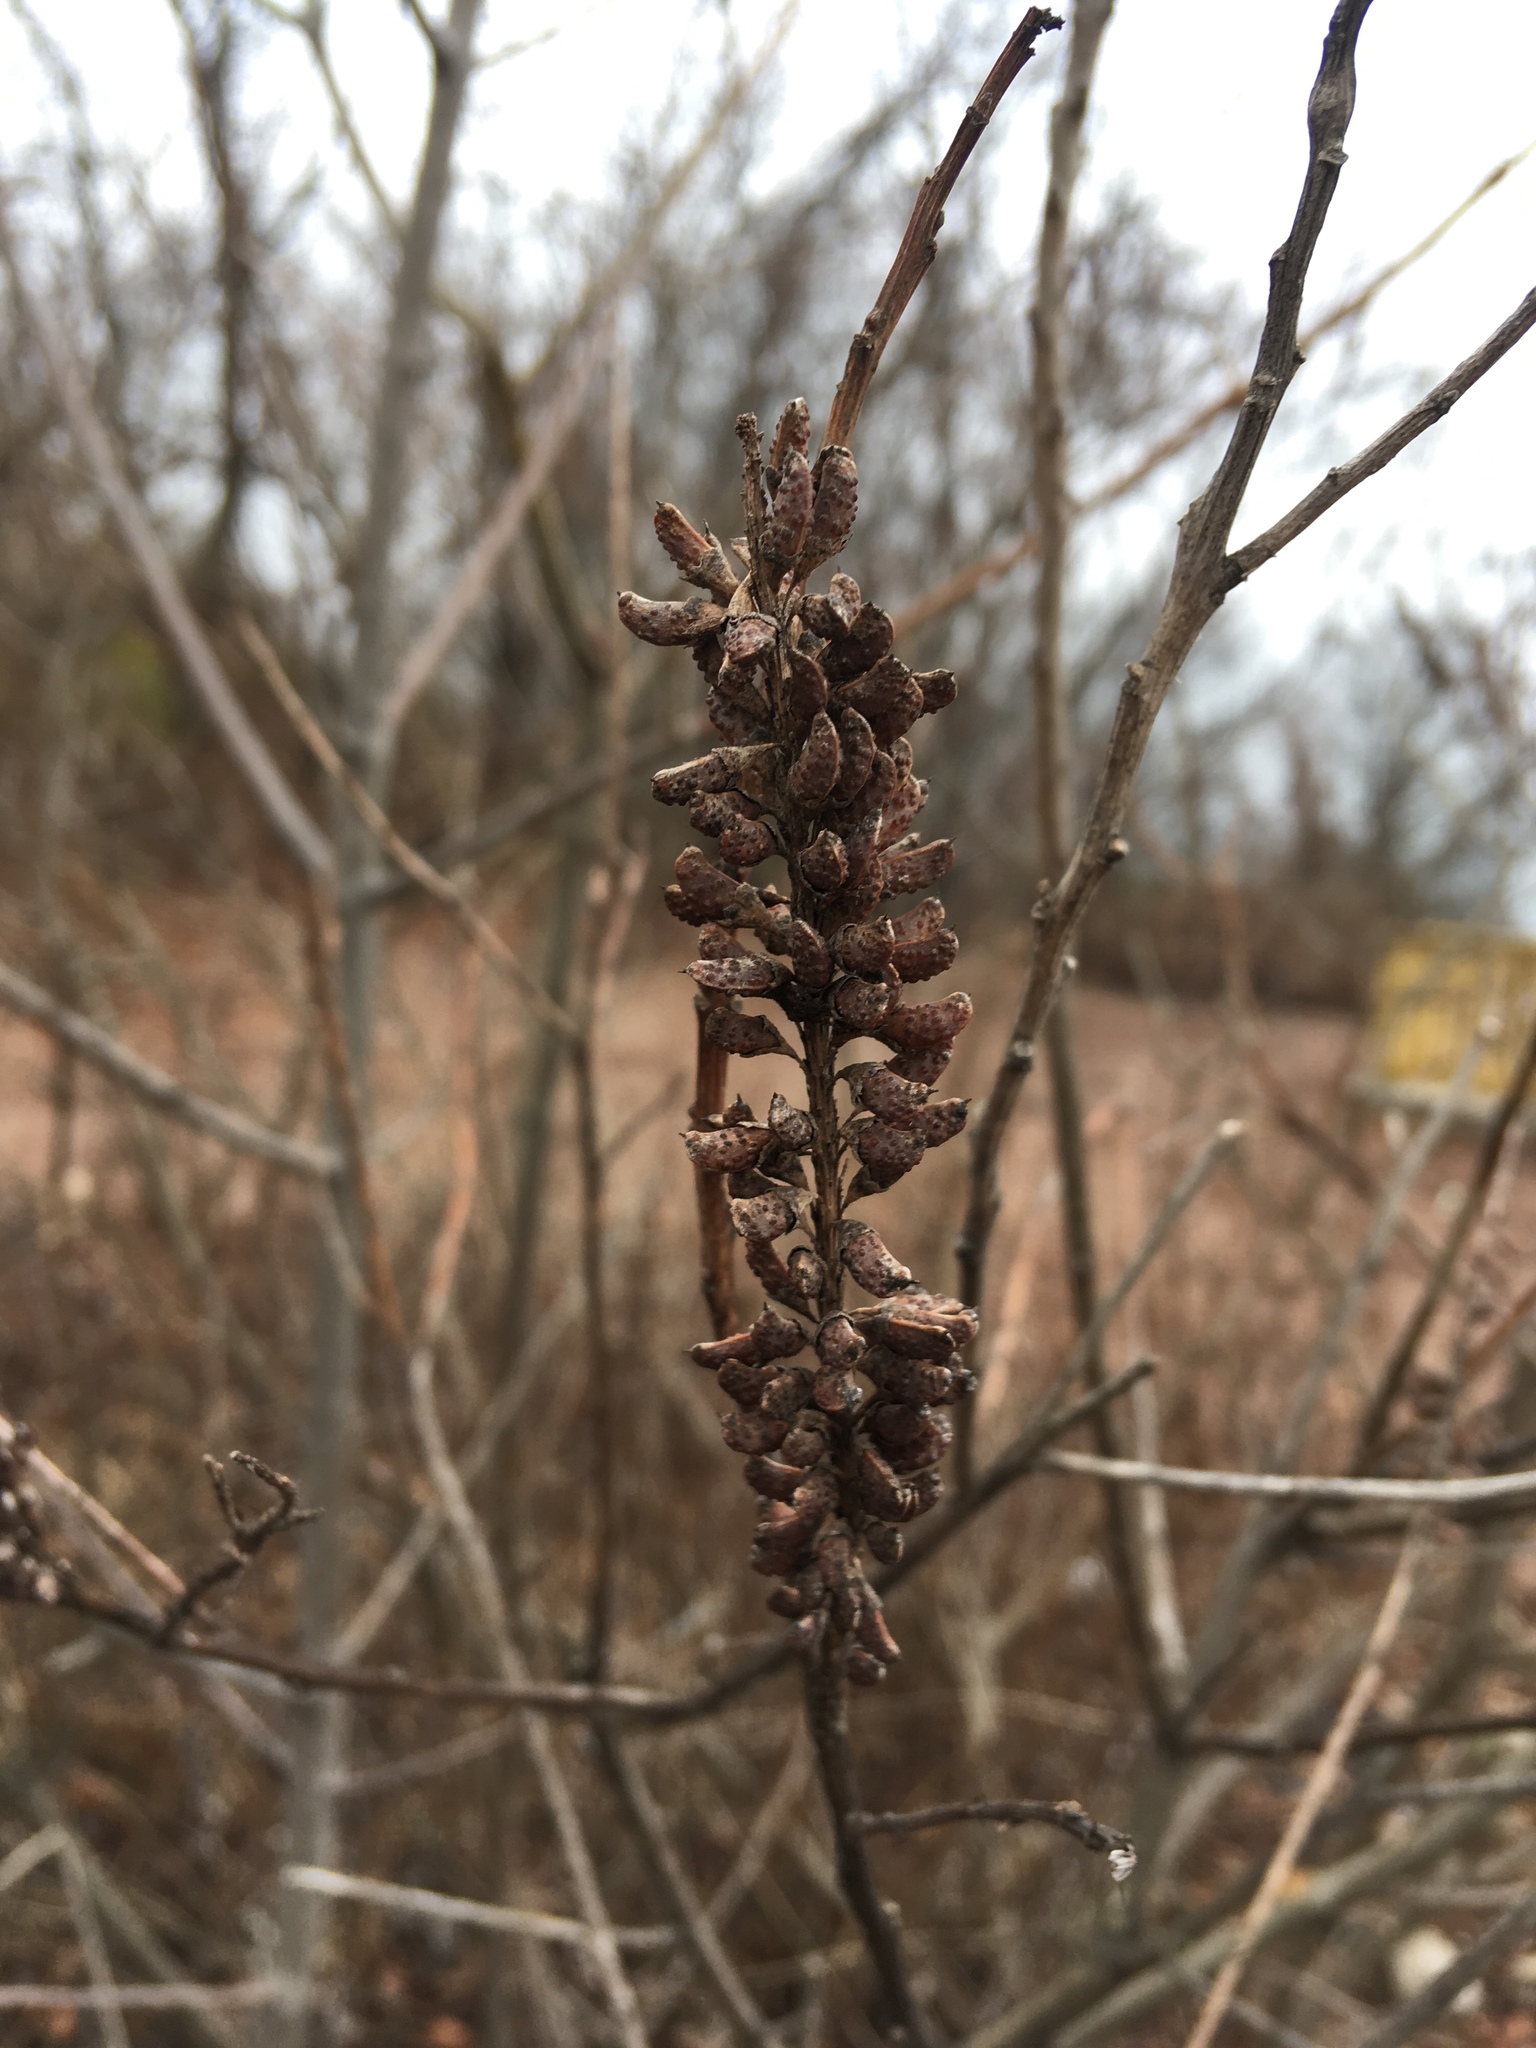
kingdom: Plantae
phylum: Tracheophyta
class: Magnoliopsida
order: Fabales
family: Fabaceae
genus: Amorpha
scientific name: Amorpha fruticosa
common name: False indigo
